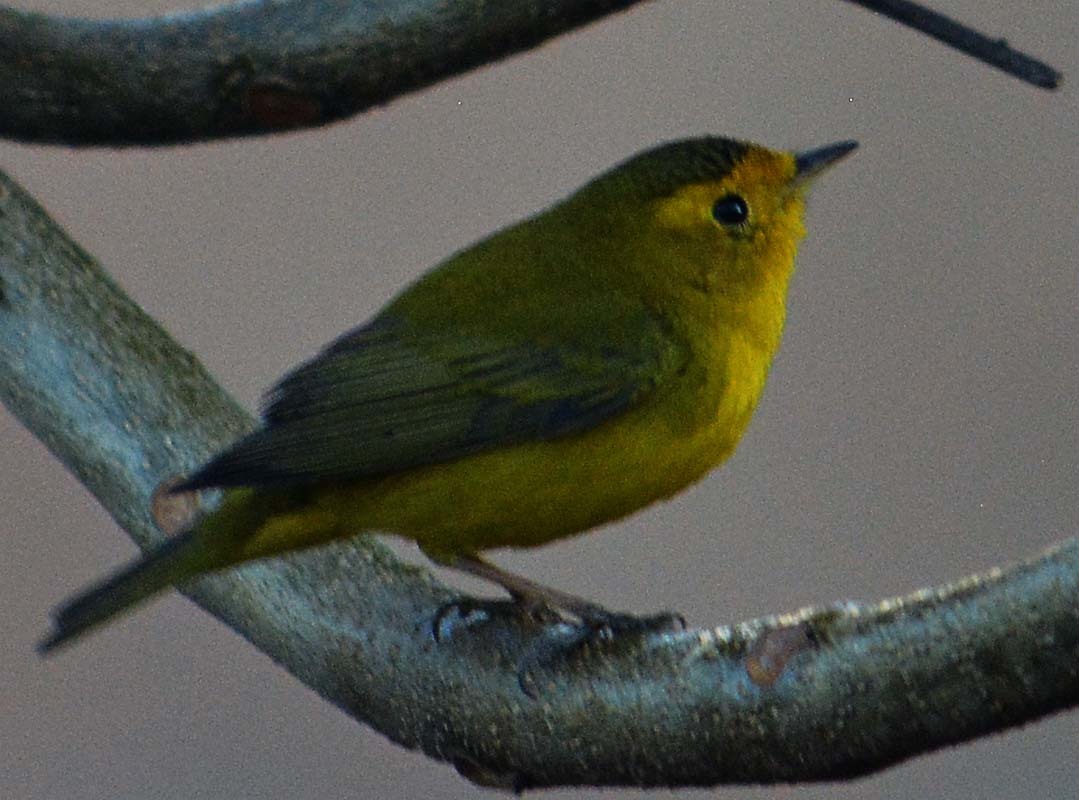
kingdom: Animalia
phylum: Chordata
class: Aves
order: Passeriformes
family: Parulidae
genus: Cardellina
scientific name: Cardellina pusilla
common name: Wilson's warbler
